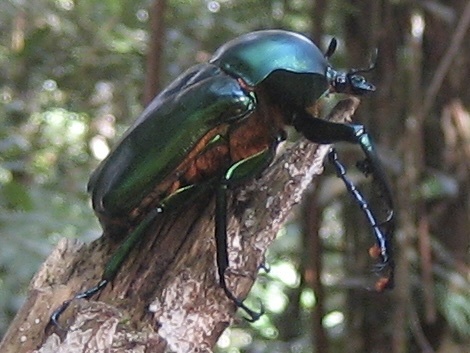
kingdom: Animalia
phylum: Arthropoda
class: Insecta
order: Coleoptera
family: Scarabaeidae
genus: Jumnos
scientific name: Jumnos ruckeri
